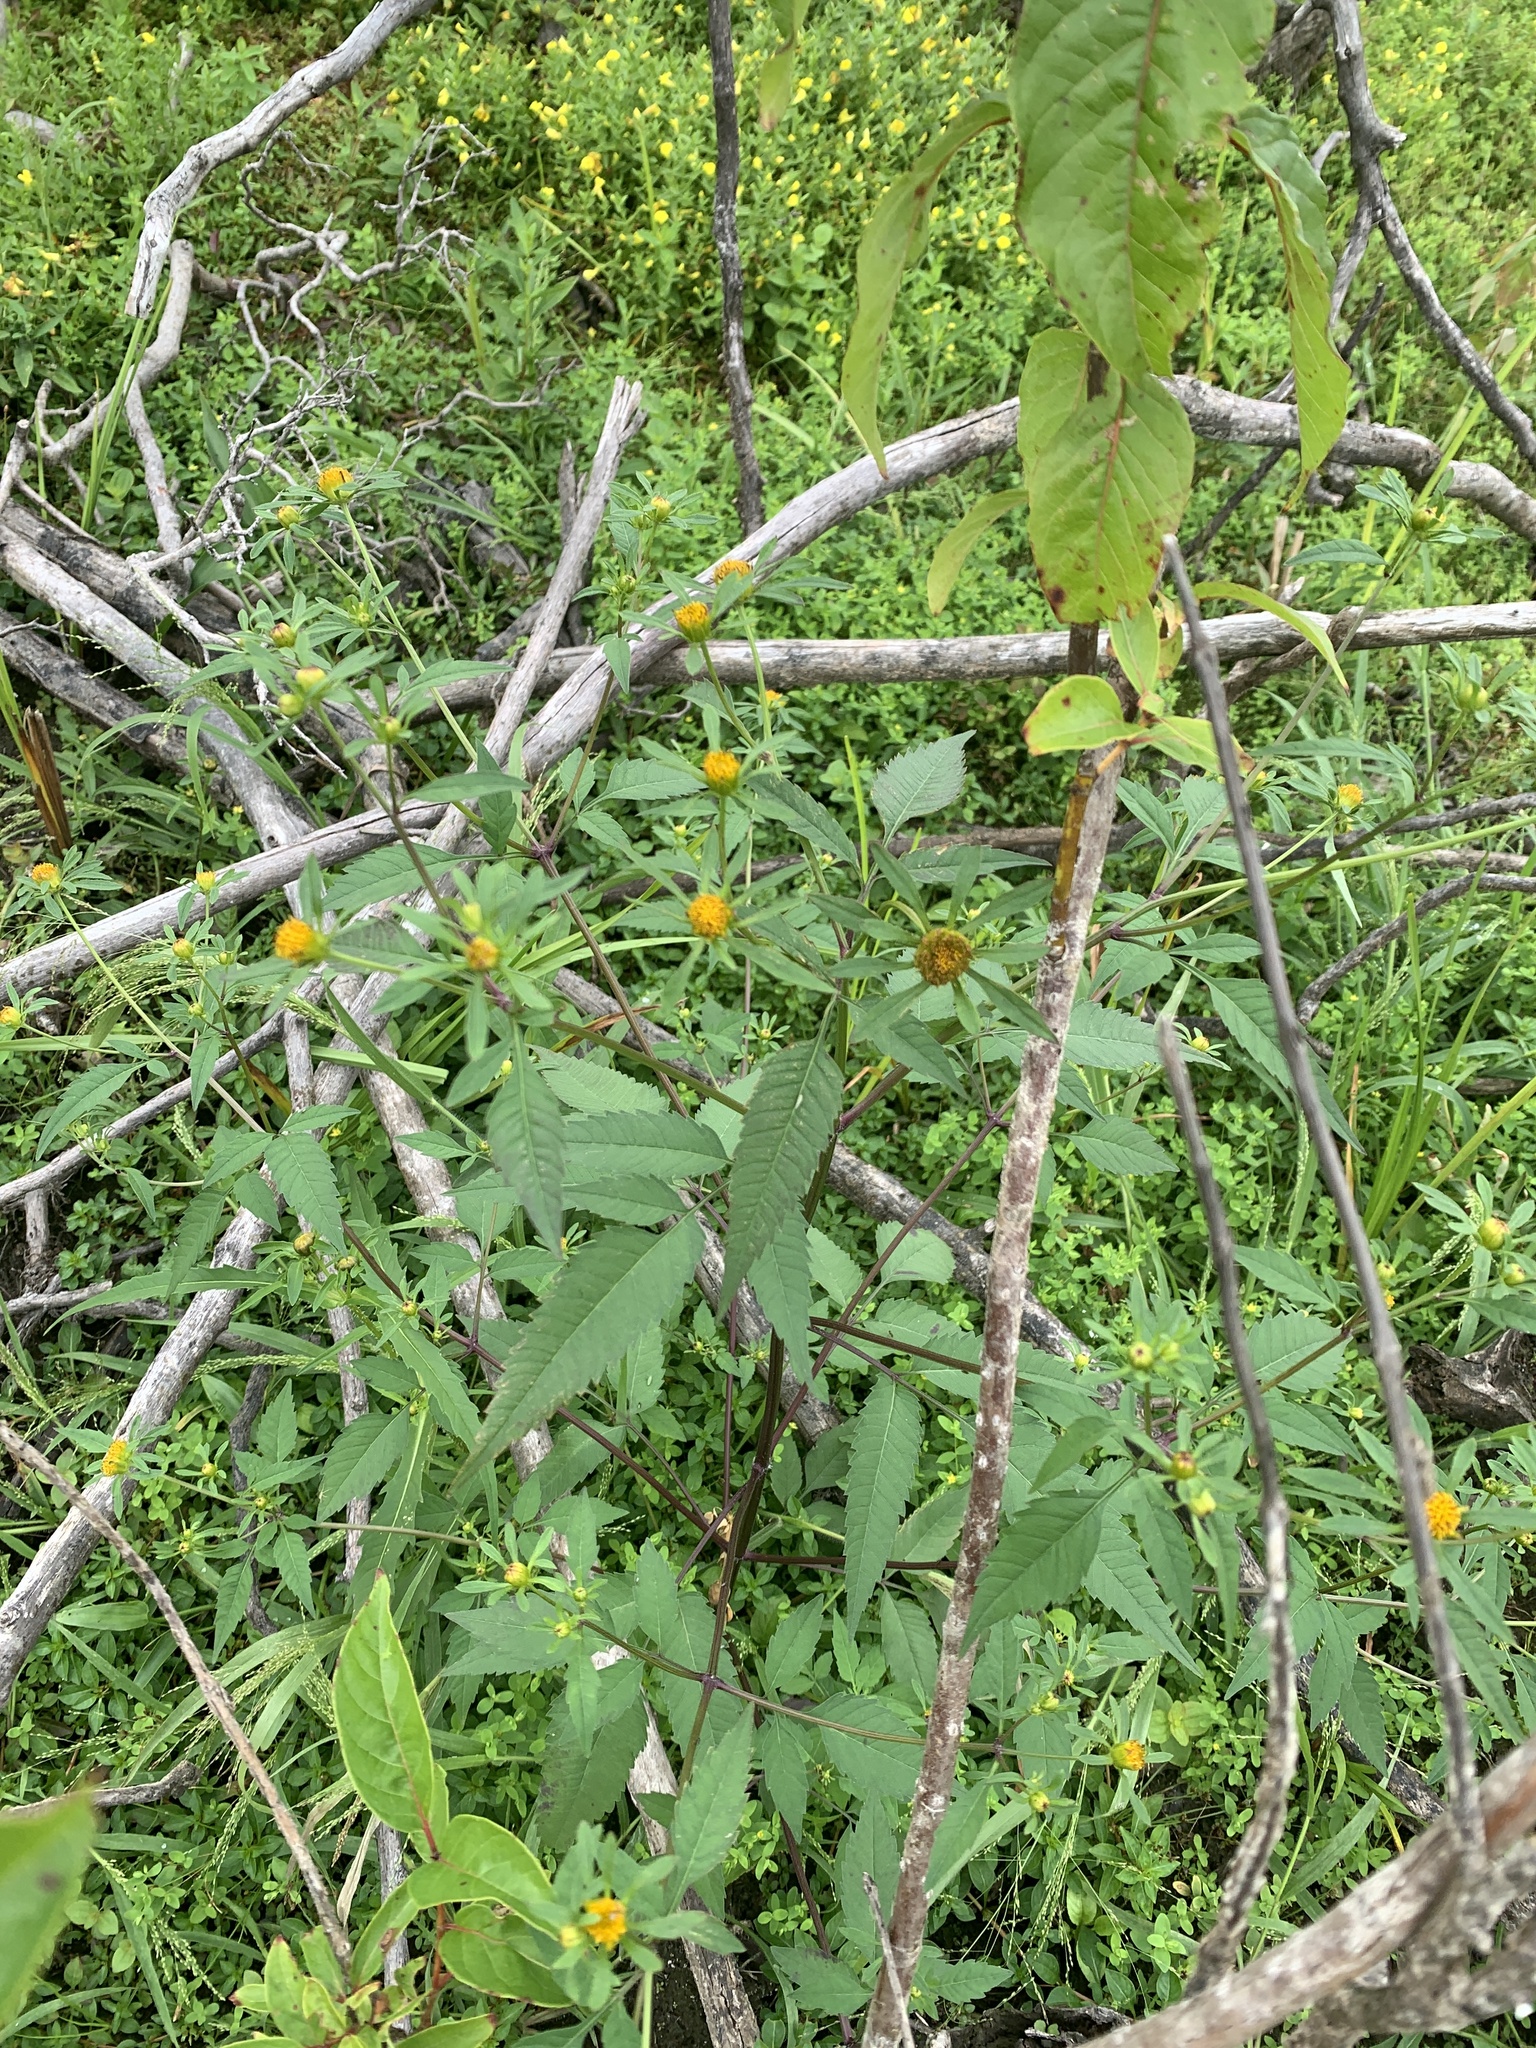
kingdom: Plantae
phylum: Tracheophyta
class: Magnoliopsida
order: Asterales
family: Asteraceae
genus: Bidens
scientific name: Bidens frondosa
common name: Beggarticks
